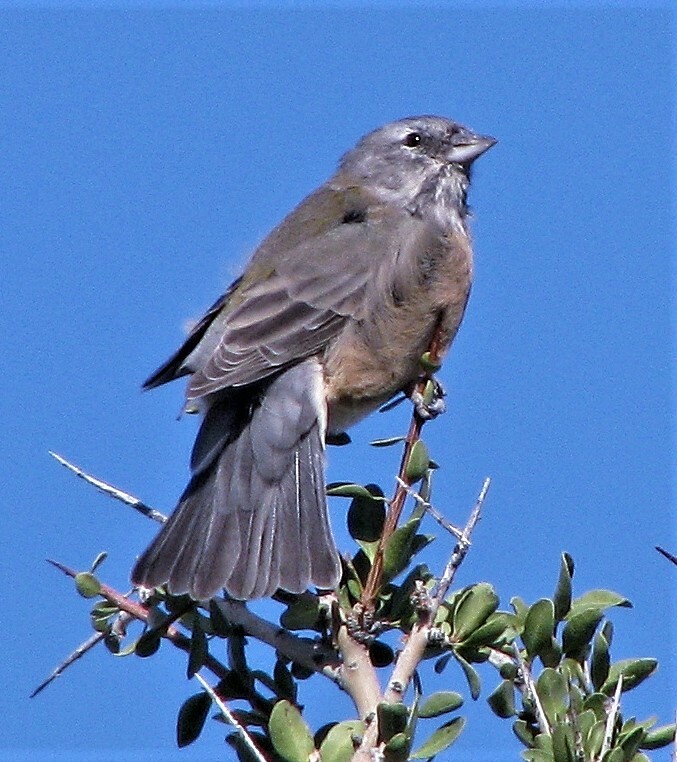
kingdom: Animalia
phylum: Chordata
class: Aves
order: Passeriformes
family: Thraupidae
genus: Phrygilus
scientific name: Phrygilus gayi
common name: Grey-hooded sierra finch
